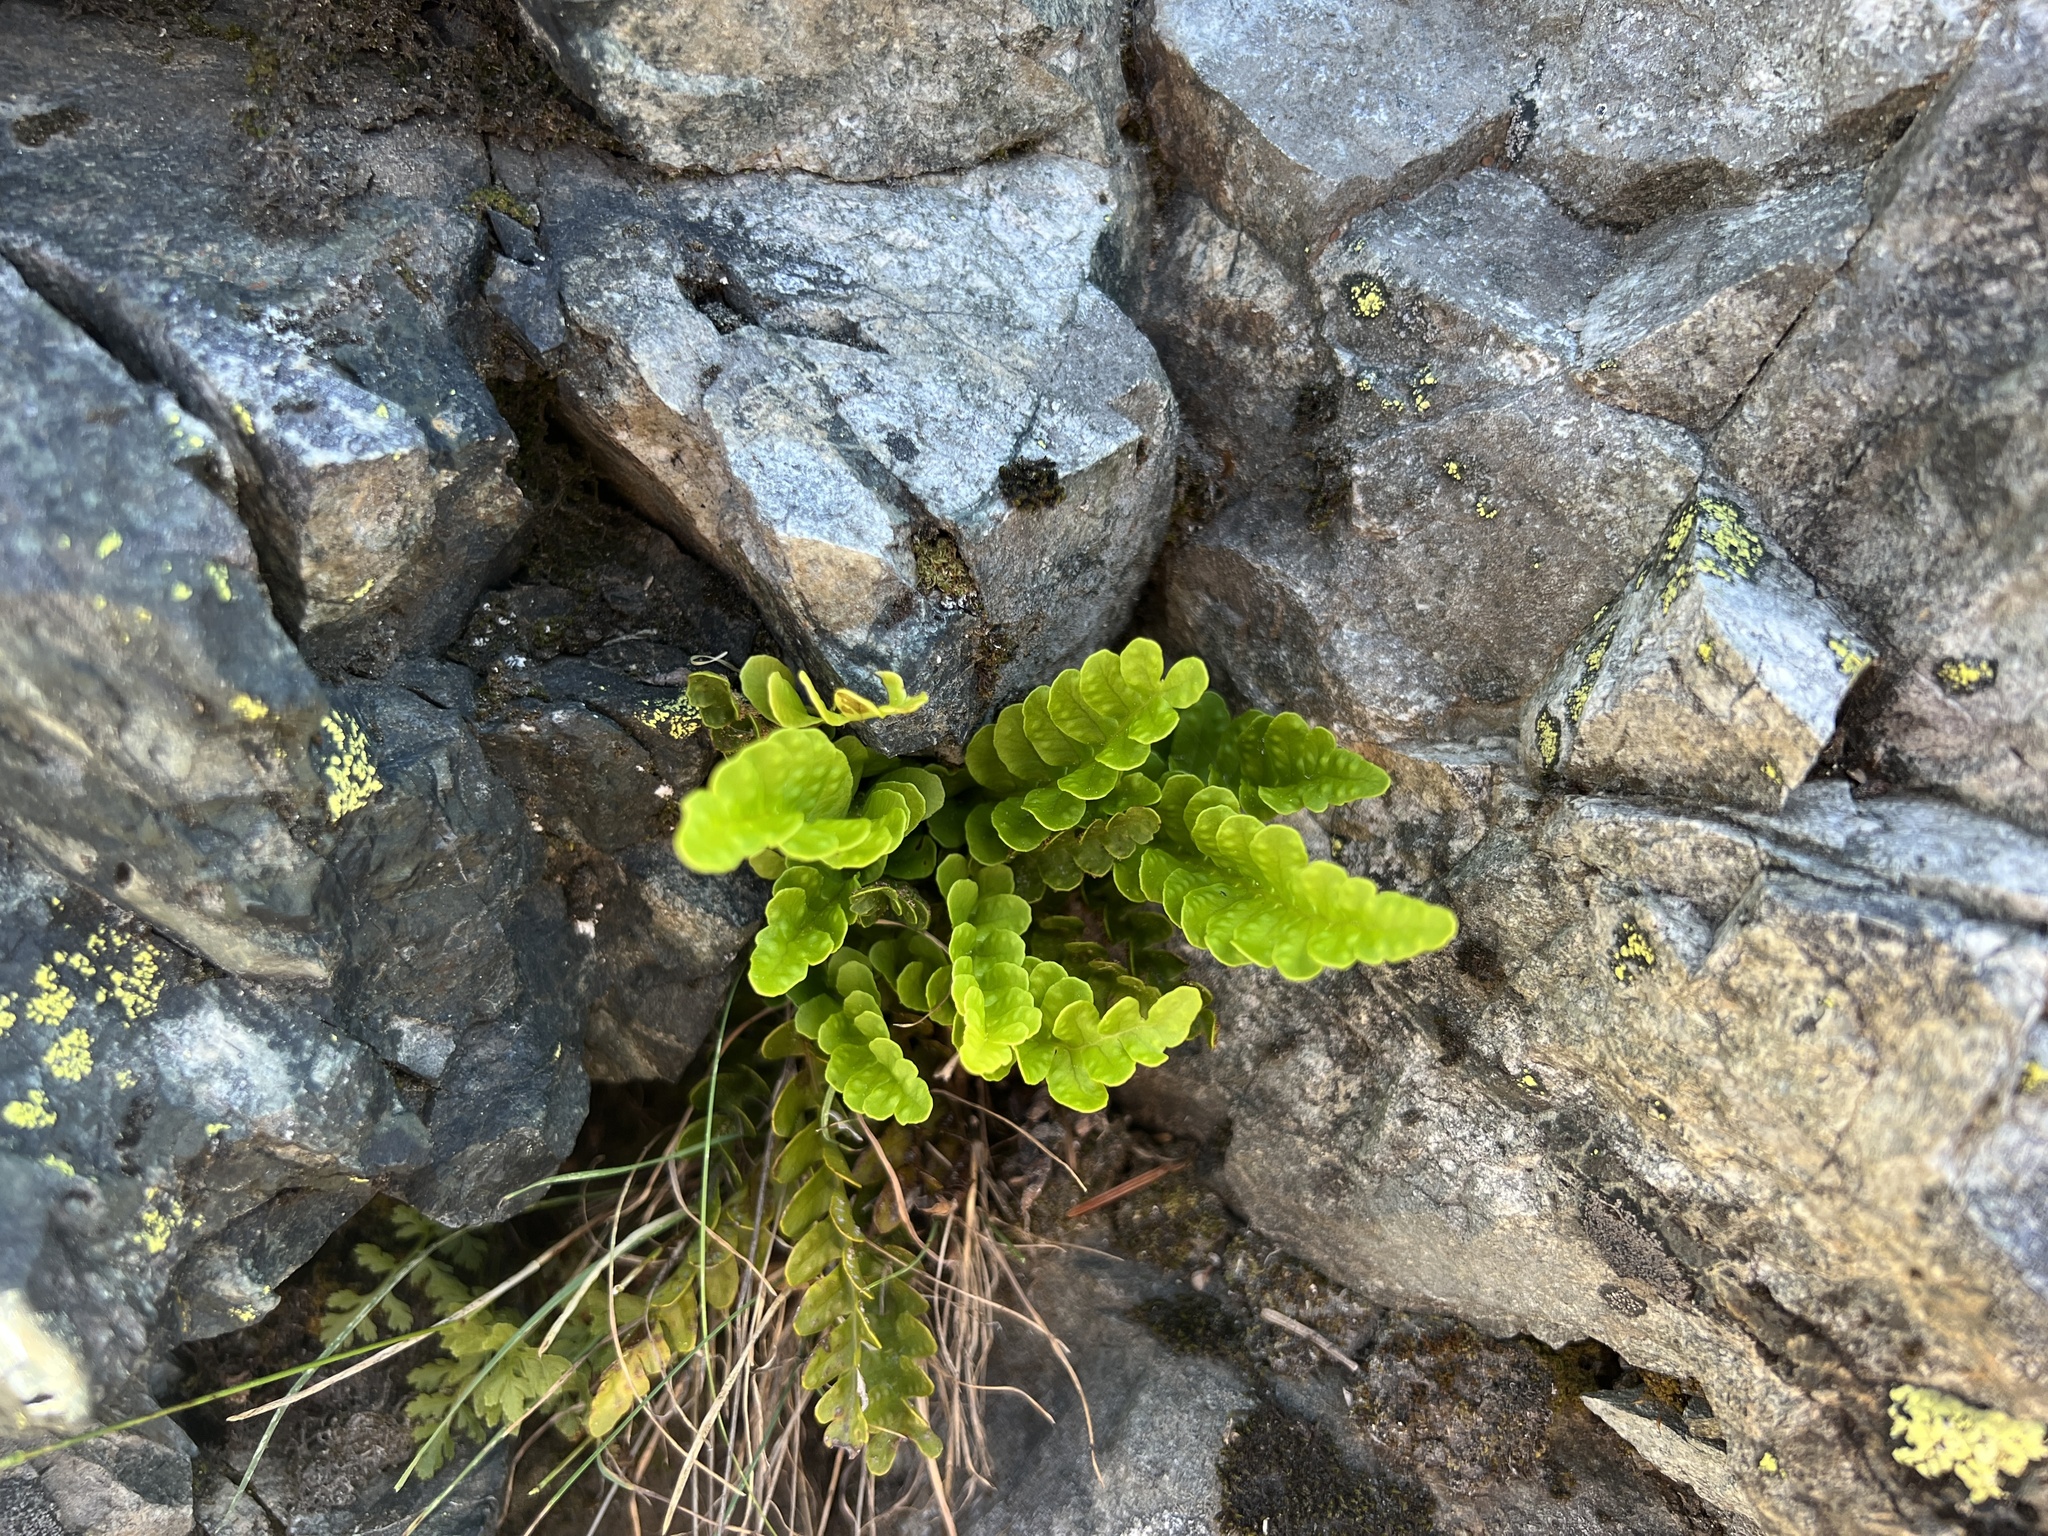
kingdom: Plantae
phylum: Tracheophyta
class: Polypodiopsida
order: Polypodiales
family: Polypodiaceae
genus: Polypodium
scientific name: Polypodium amorphum
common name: Pacific polypody
